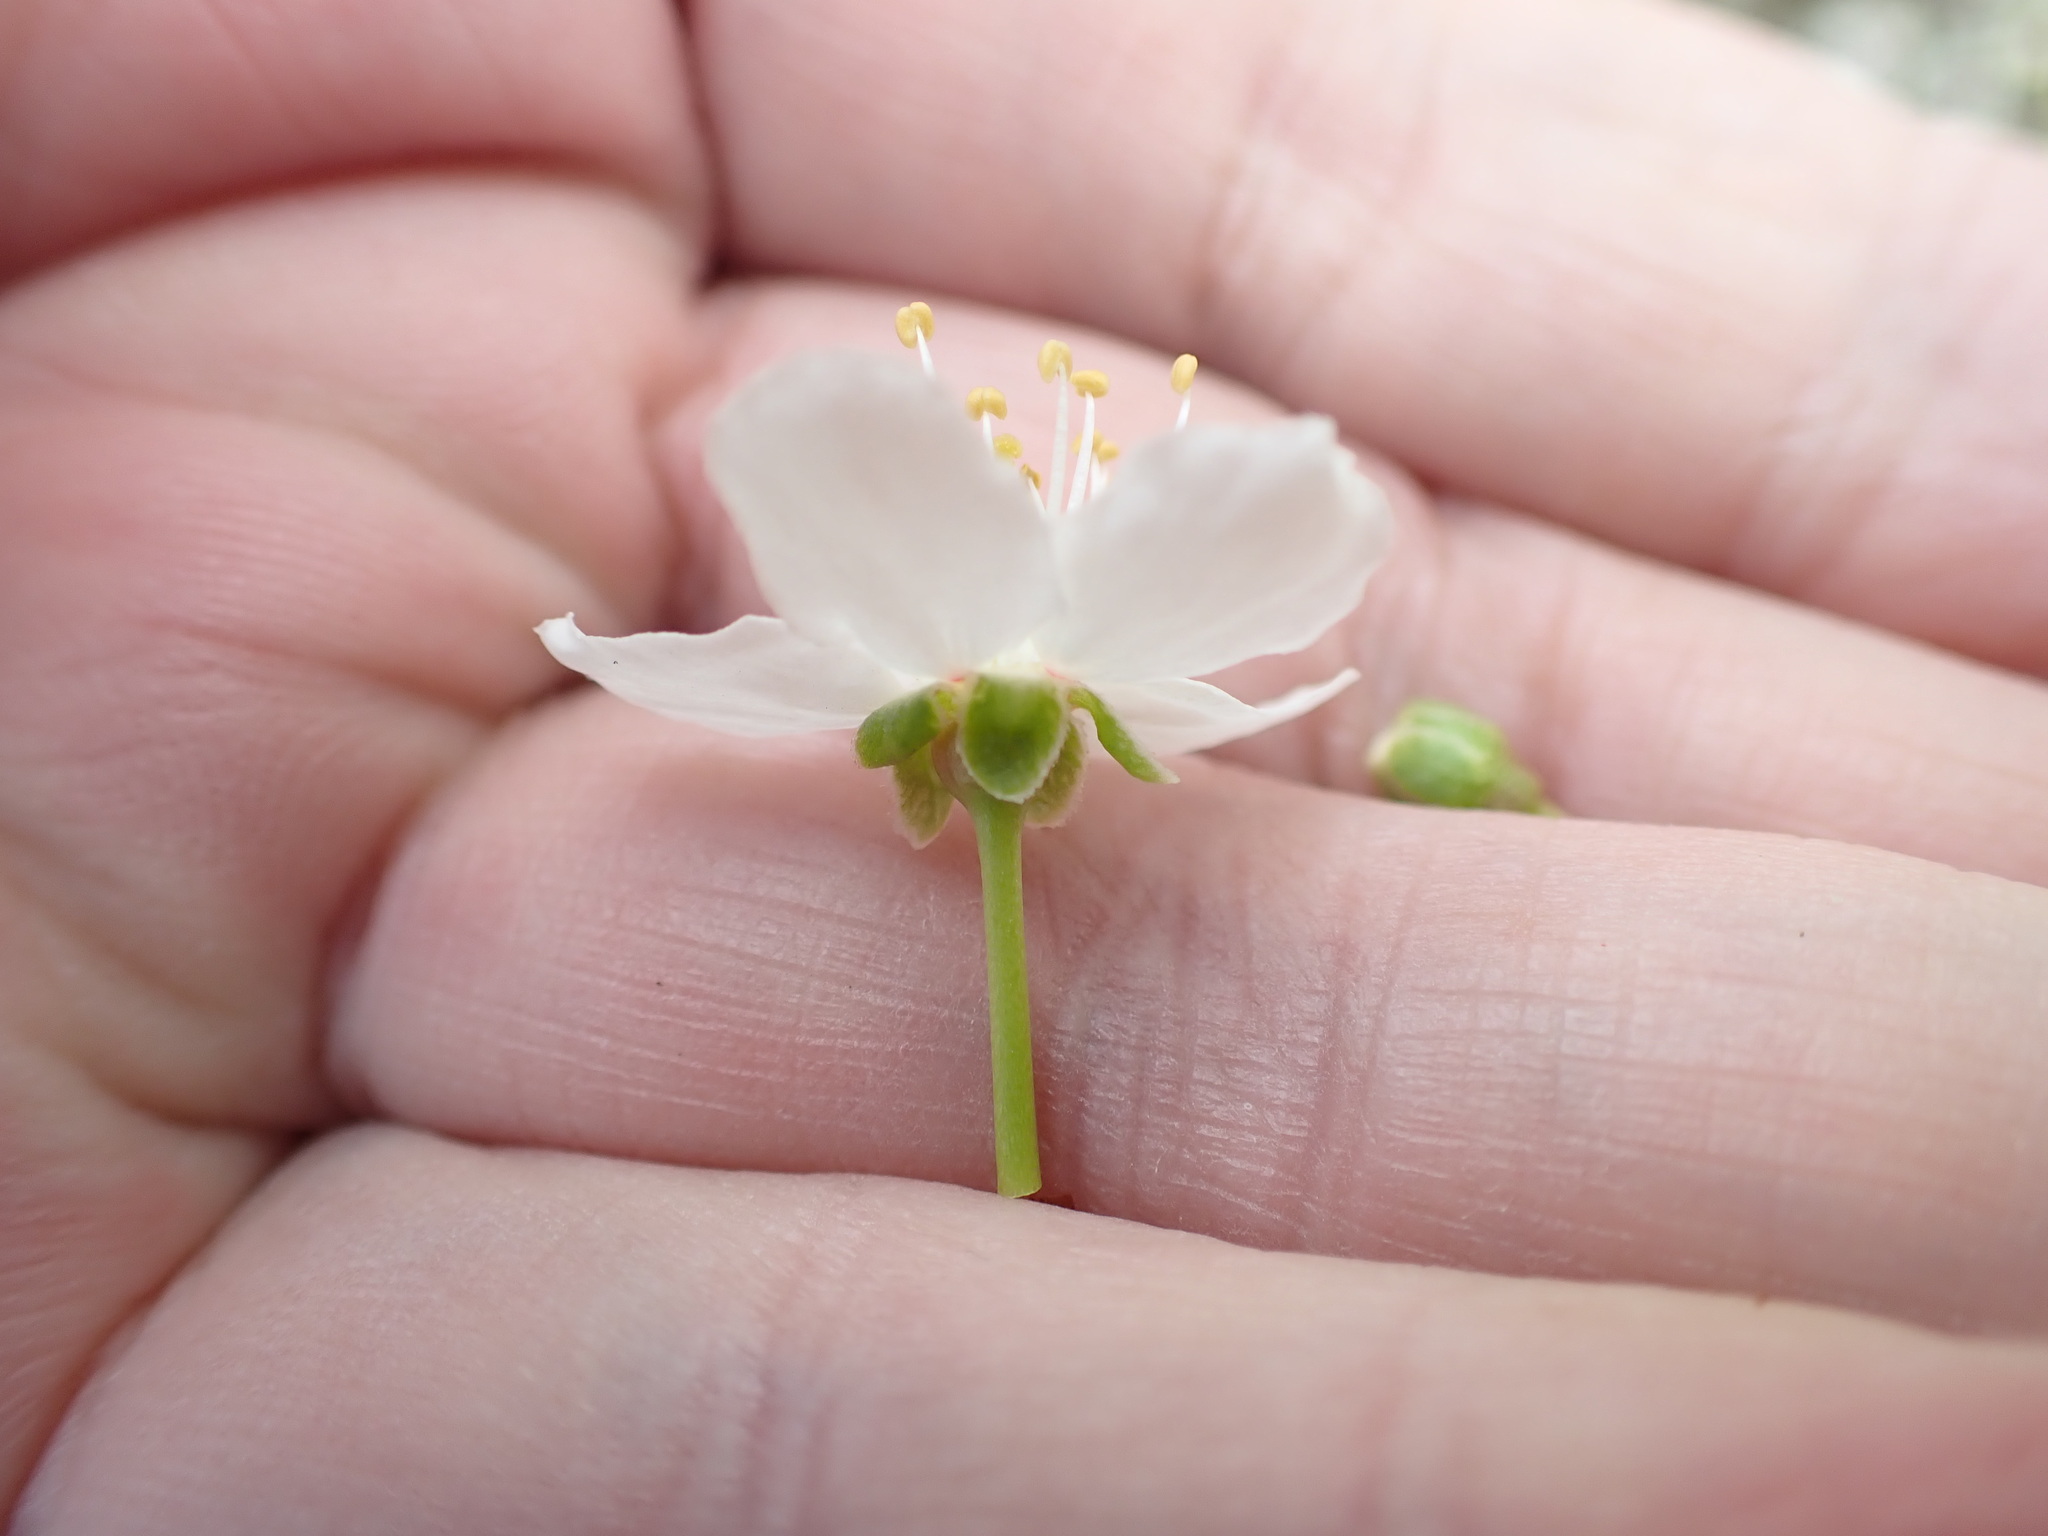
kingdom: Plantae
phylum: Tracheophyta
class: Magnoliopsida
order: Rosales
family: Rosaceae
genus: Prunus
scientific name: Prunus cerasifera
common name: Cherry plum
